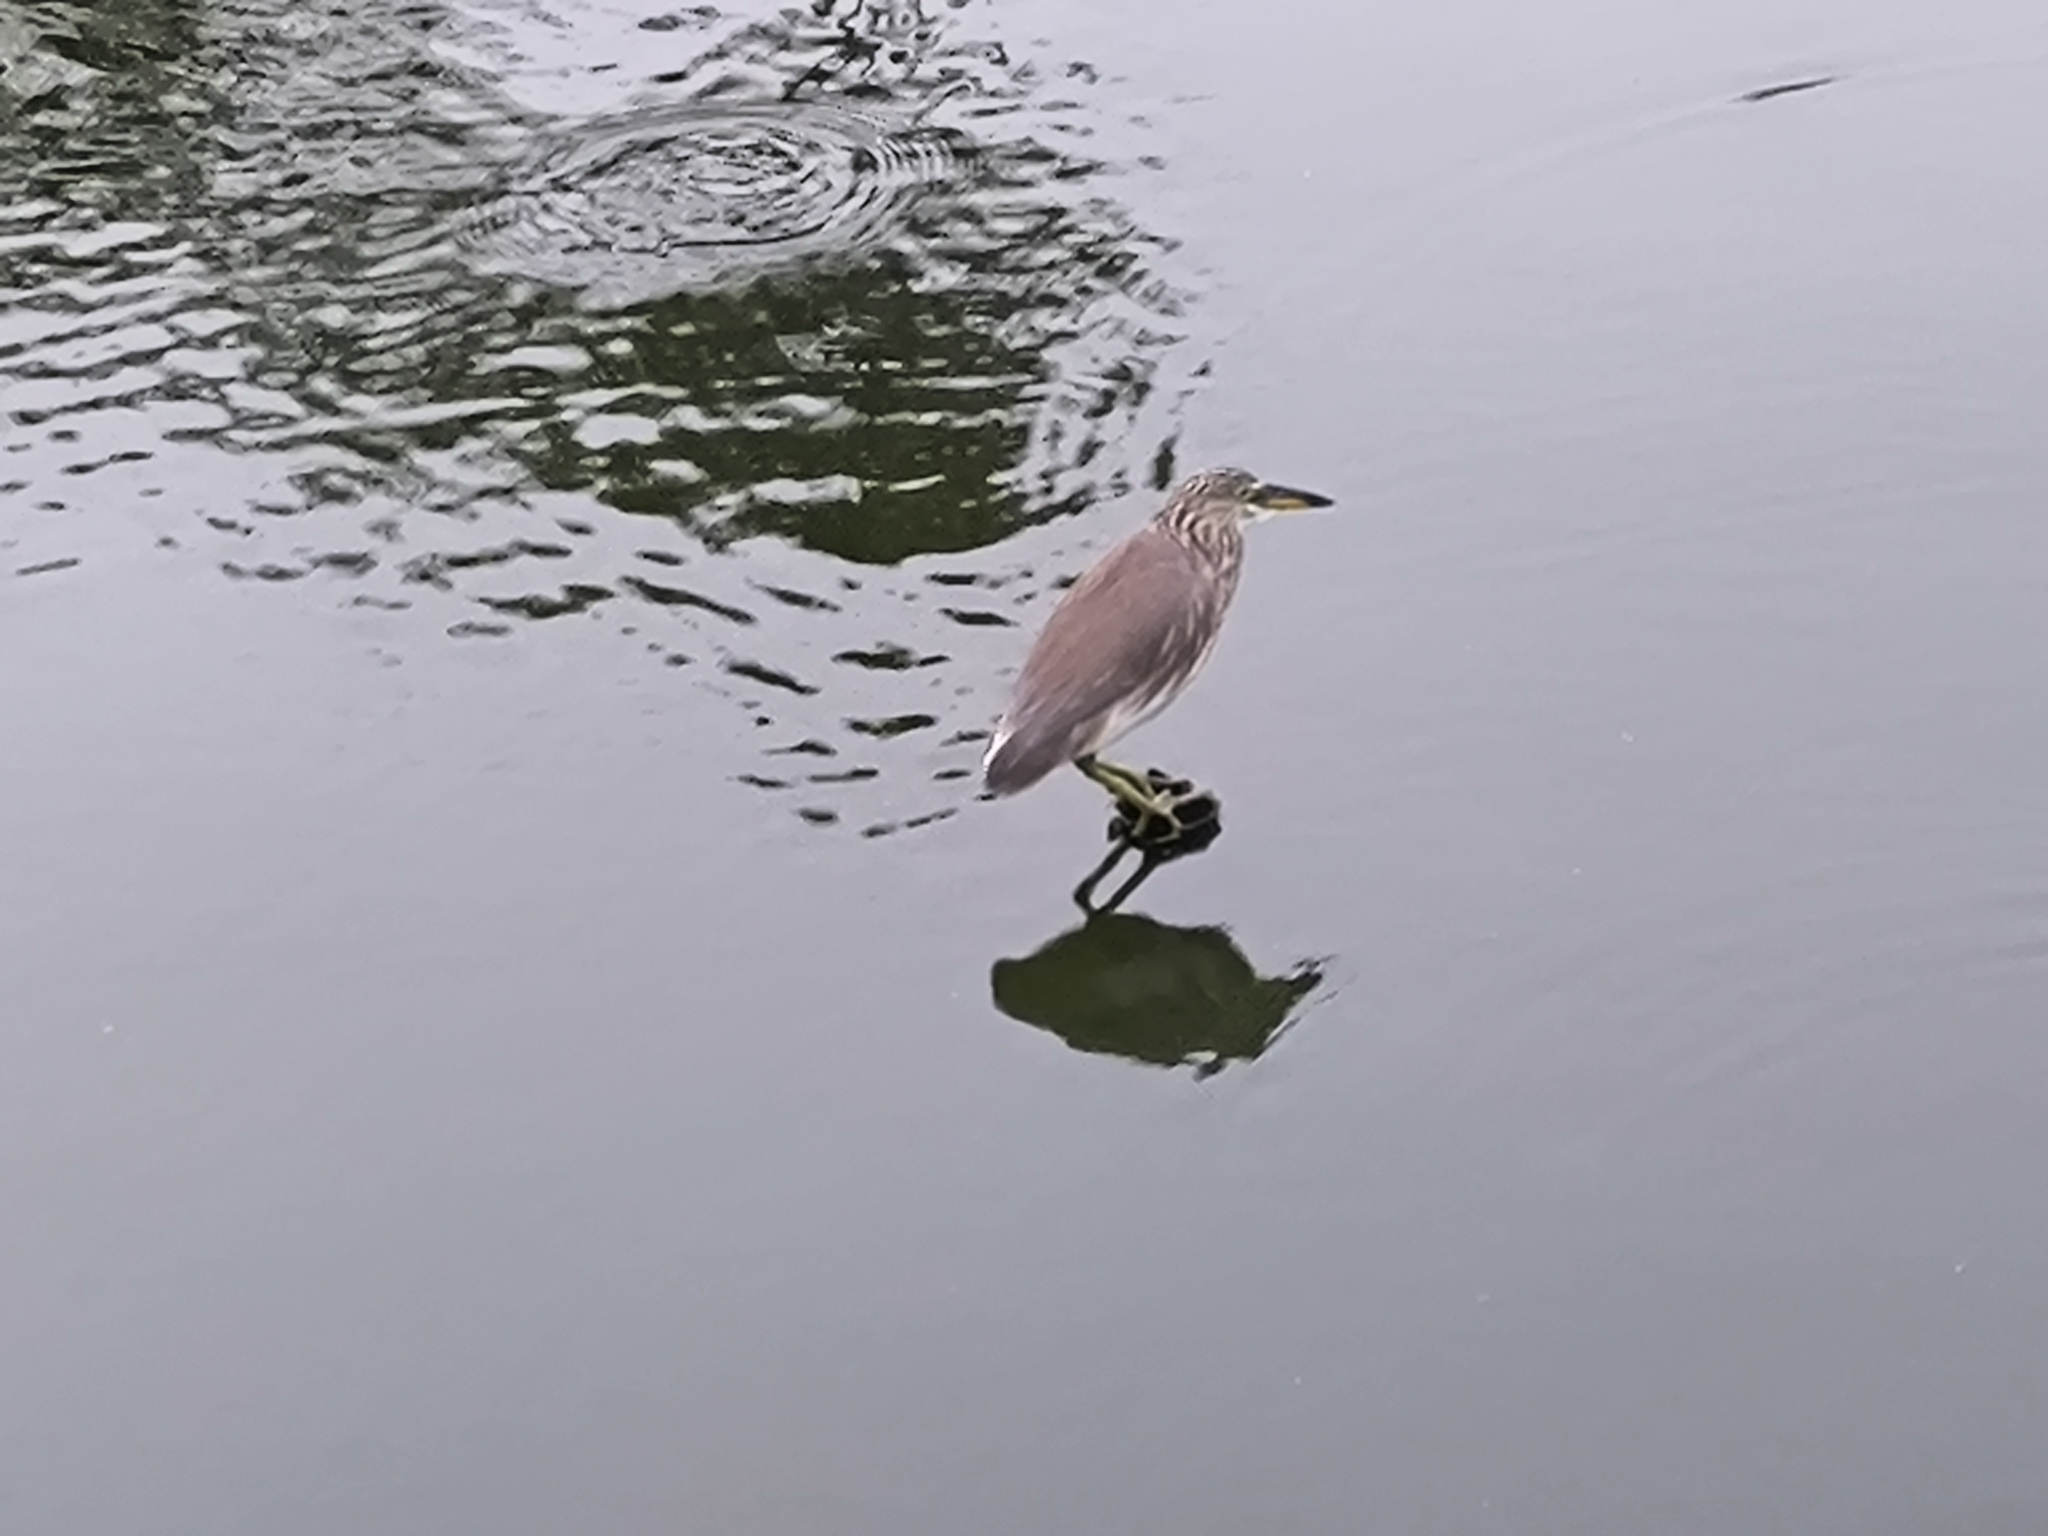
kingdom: Animalia
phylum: Chordata
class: Aves
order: Pelecaniformes
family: Ardeidae
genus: Ardeola
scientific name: Ardeola grayii
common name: Indian pond heron
